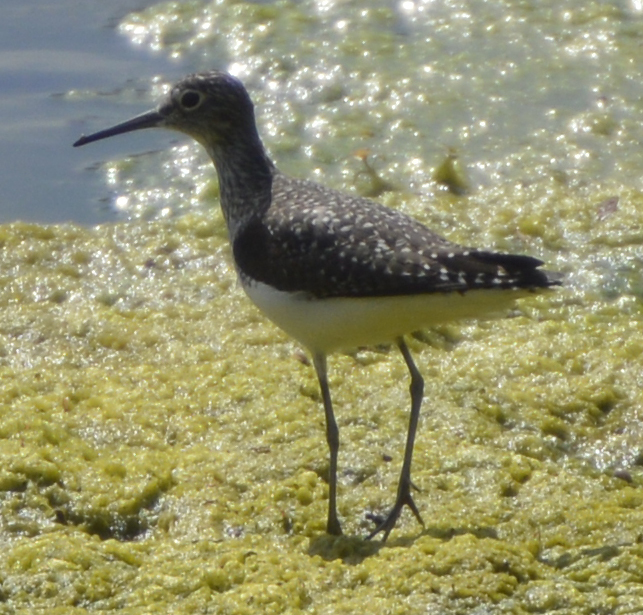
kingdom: Animalia
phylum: Chordata
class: Aves
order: Charadriiformes
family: Scolopacidae
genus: Tringa
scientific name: Tringa solitaria
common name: Solitary sandpiper
